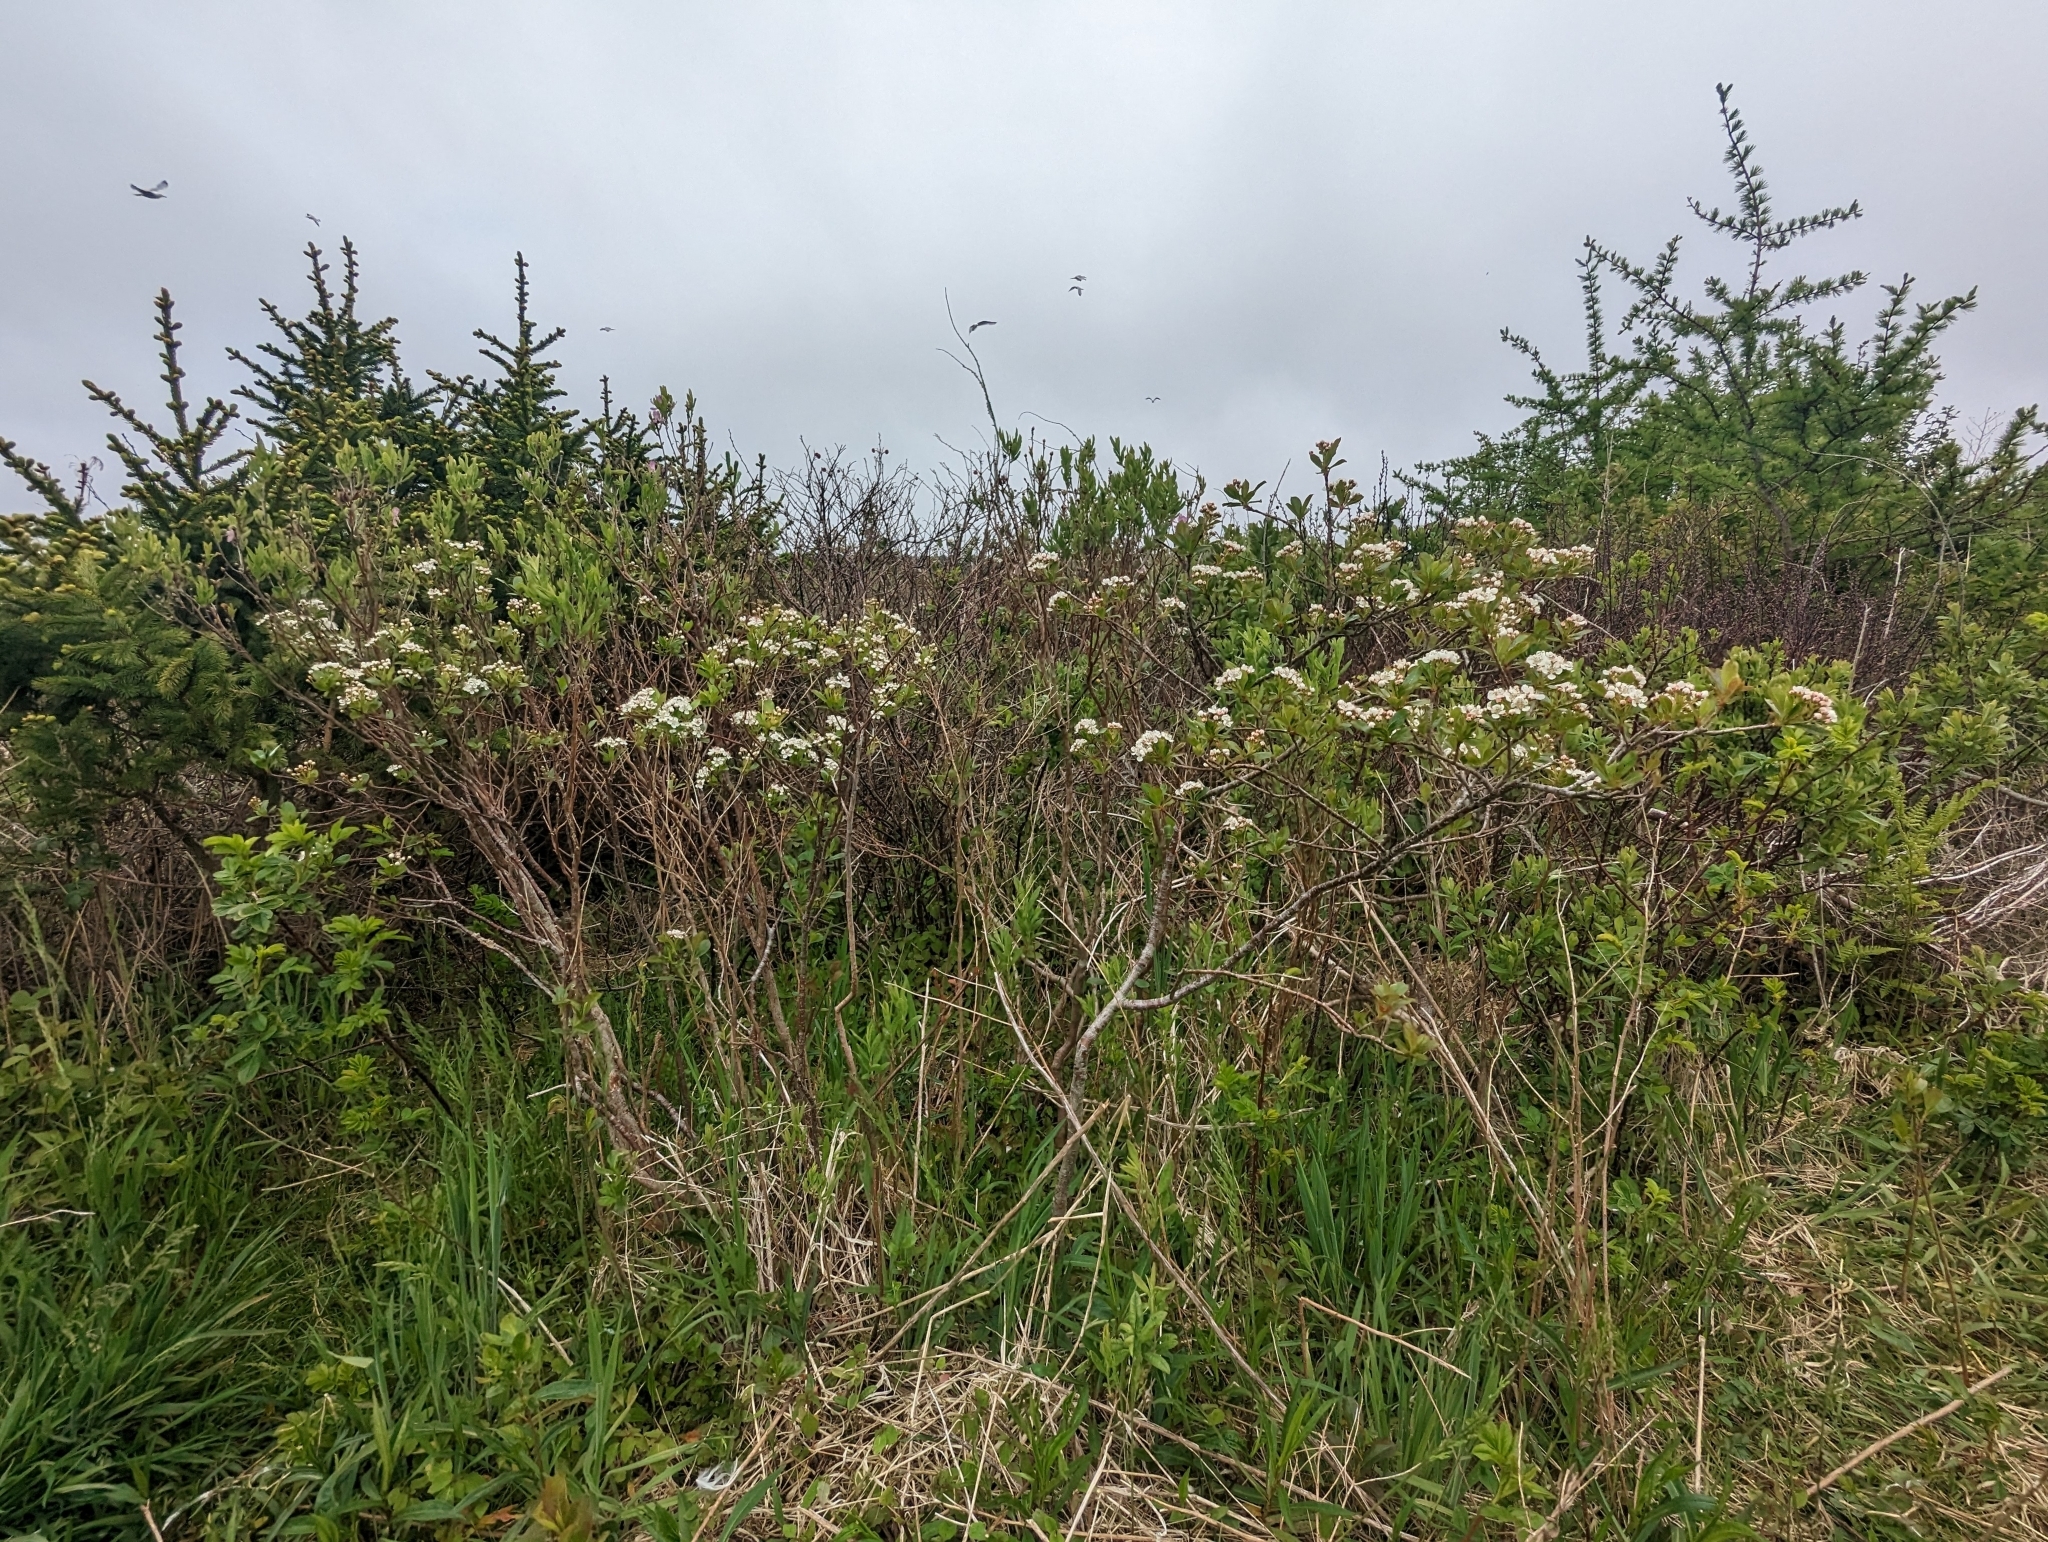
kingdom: Plantae
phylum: Tracheophyta
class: Magnoliopsida
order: Rosales
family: Rosaceae
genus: Aronia
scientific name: Aronia melanocarpa
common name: Black chokeberry
